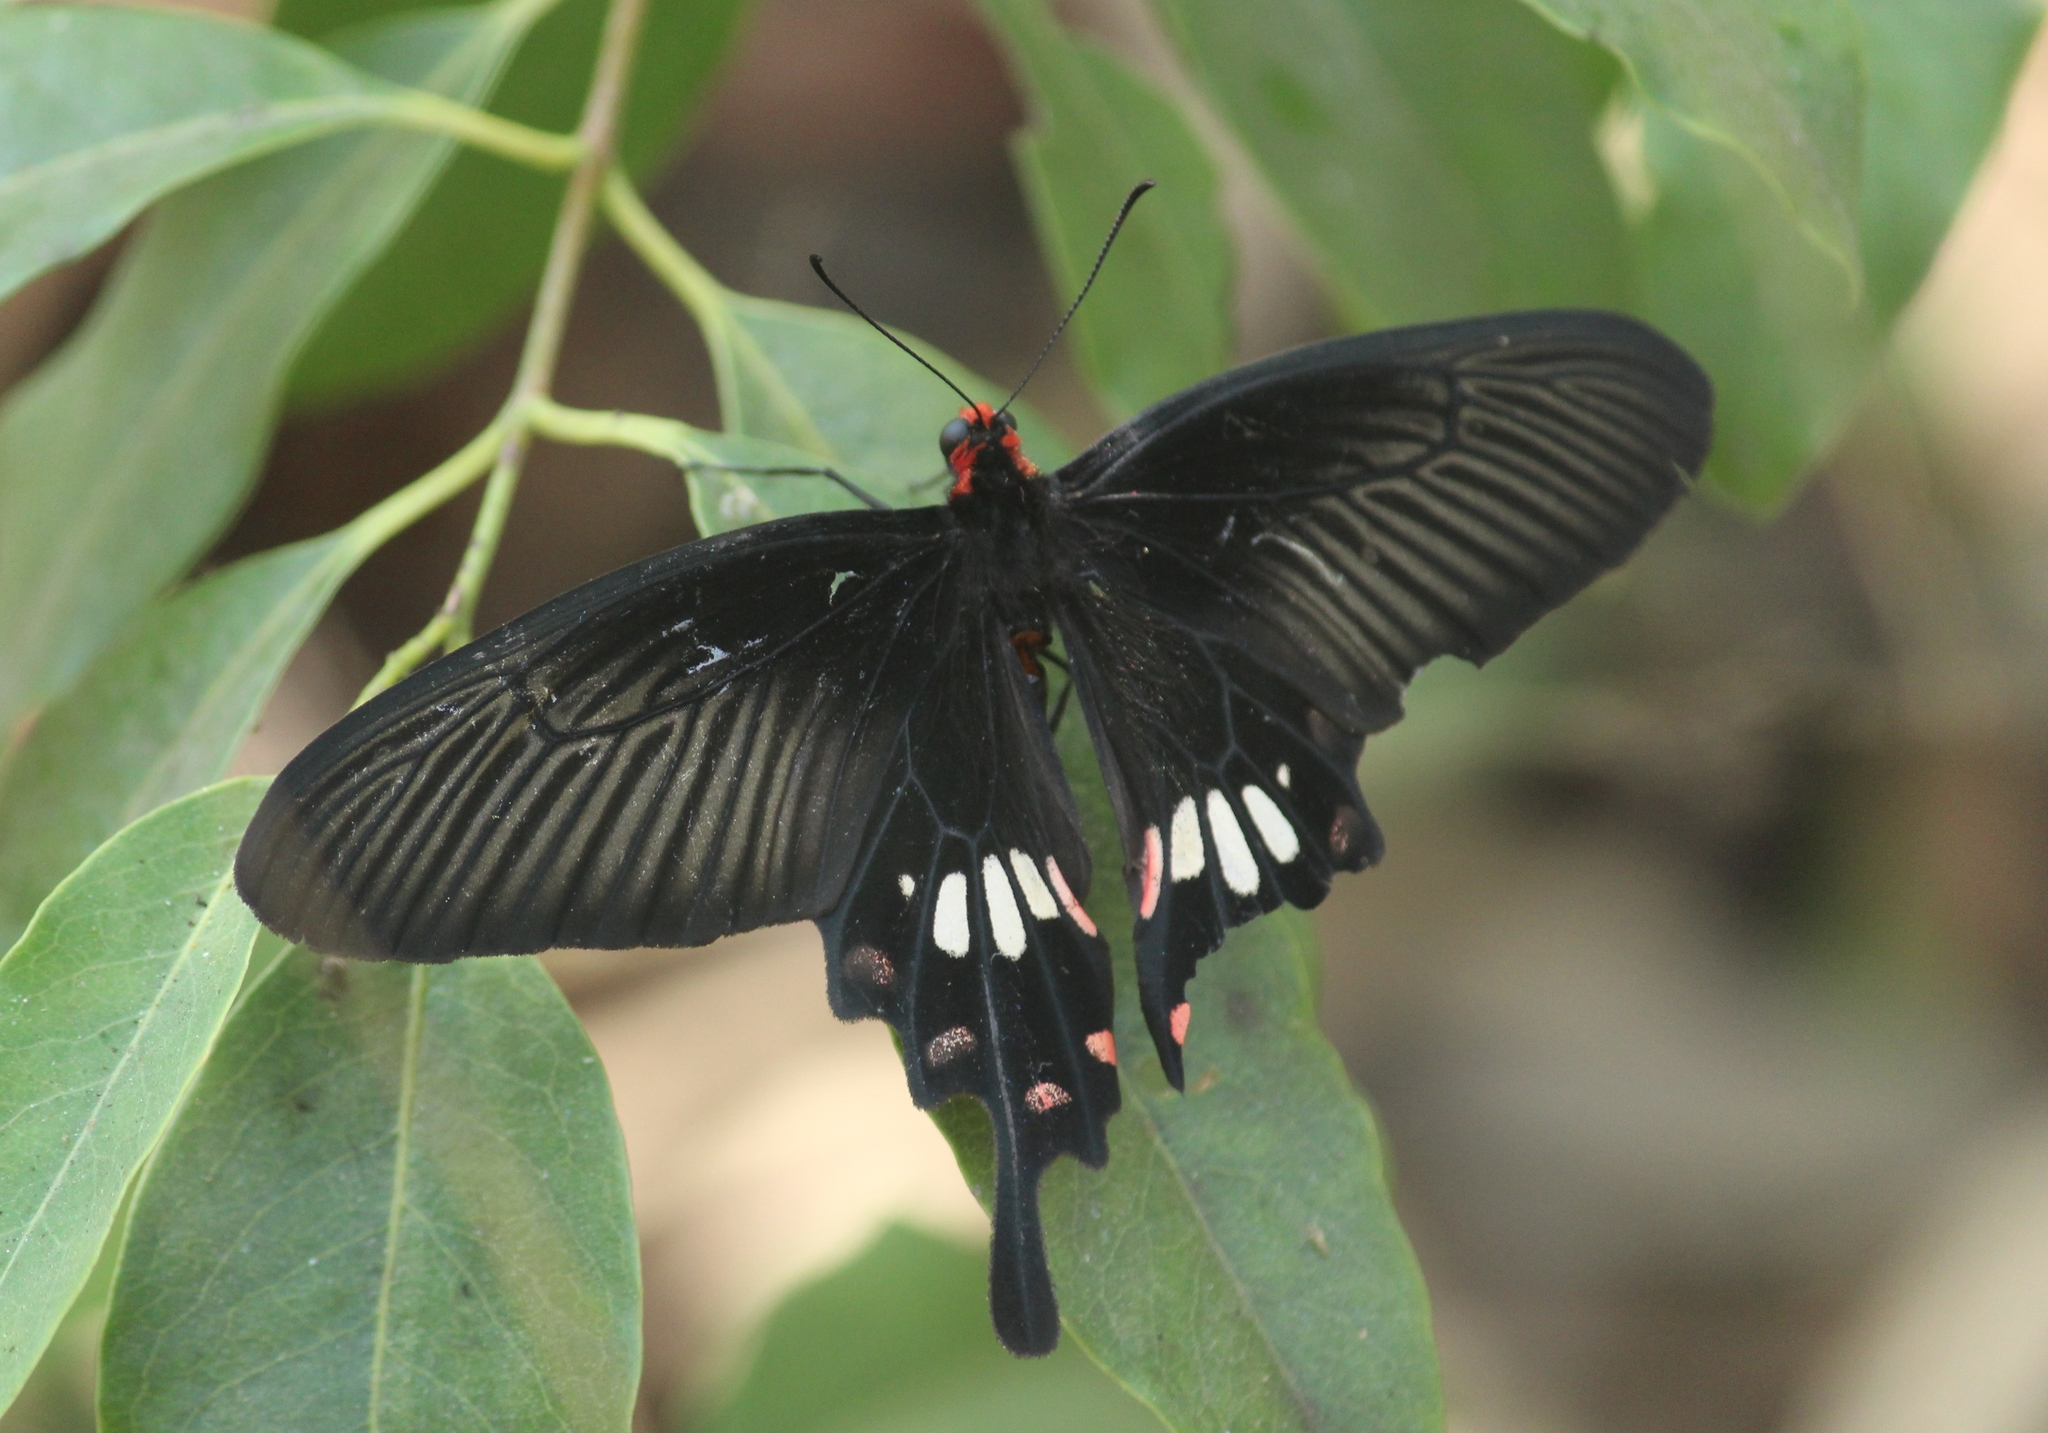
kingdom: Animalia
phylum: Arthropoda
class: Insecta
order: Lepidoptera
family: Papilionidae
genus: Pachliopta
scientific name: Pachliopta aristolochiae
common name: Common rose
